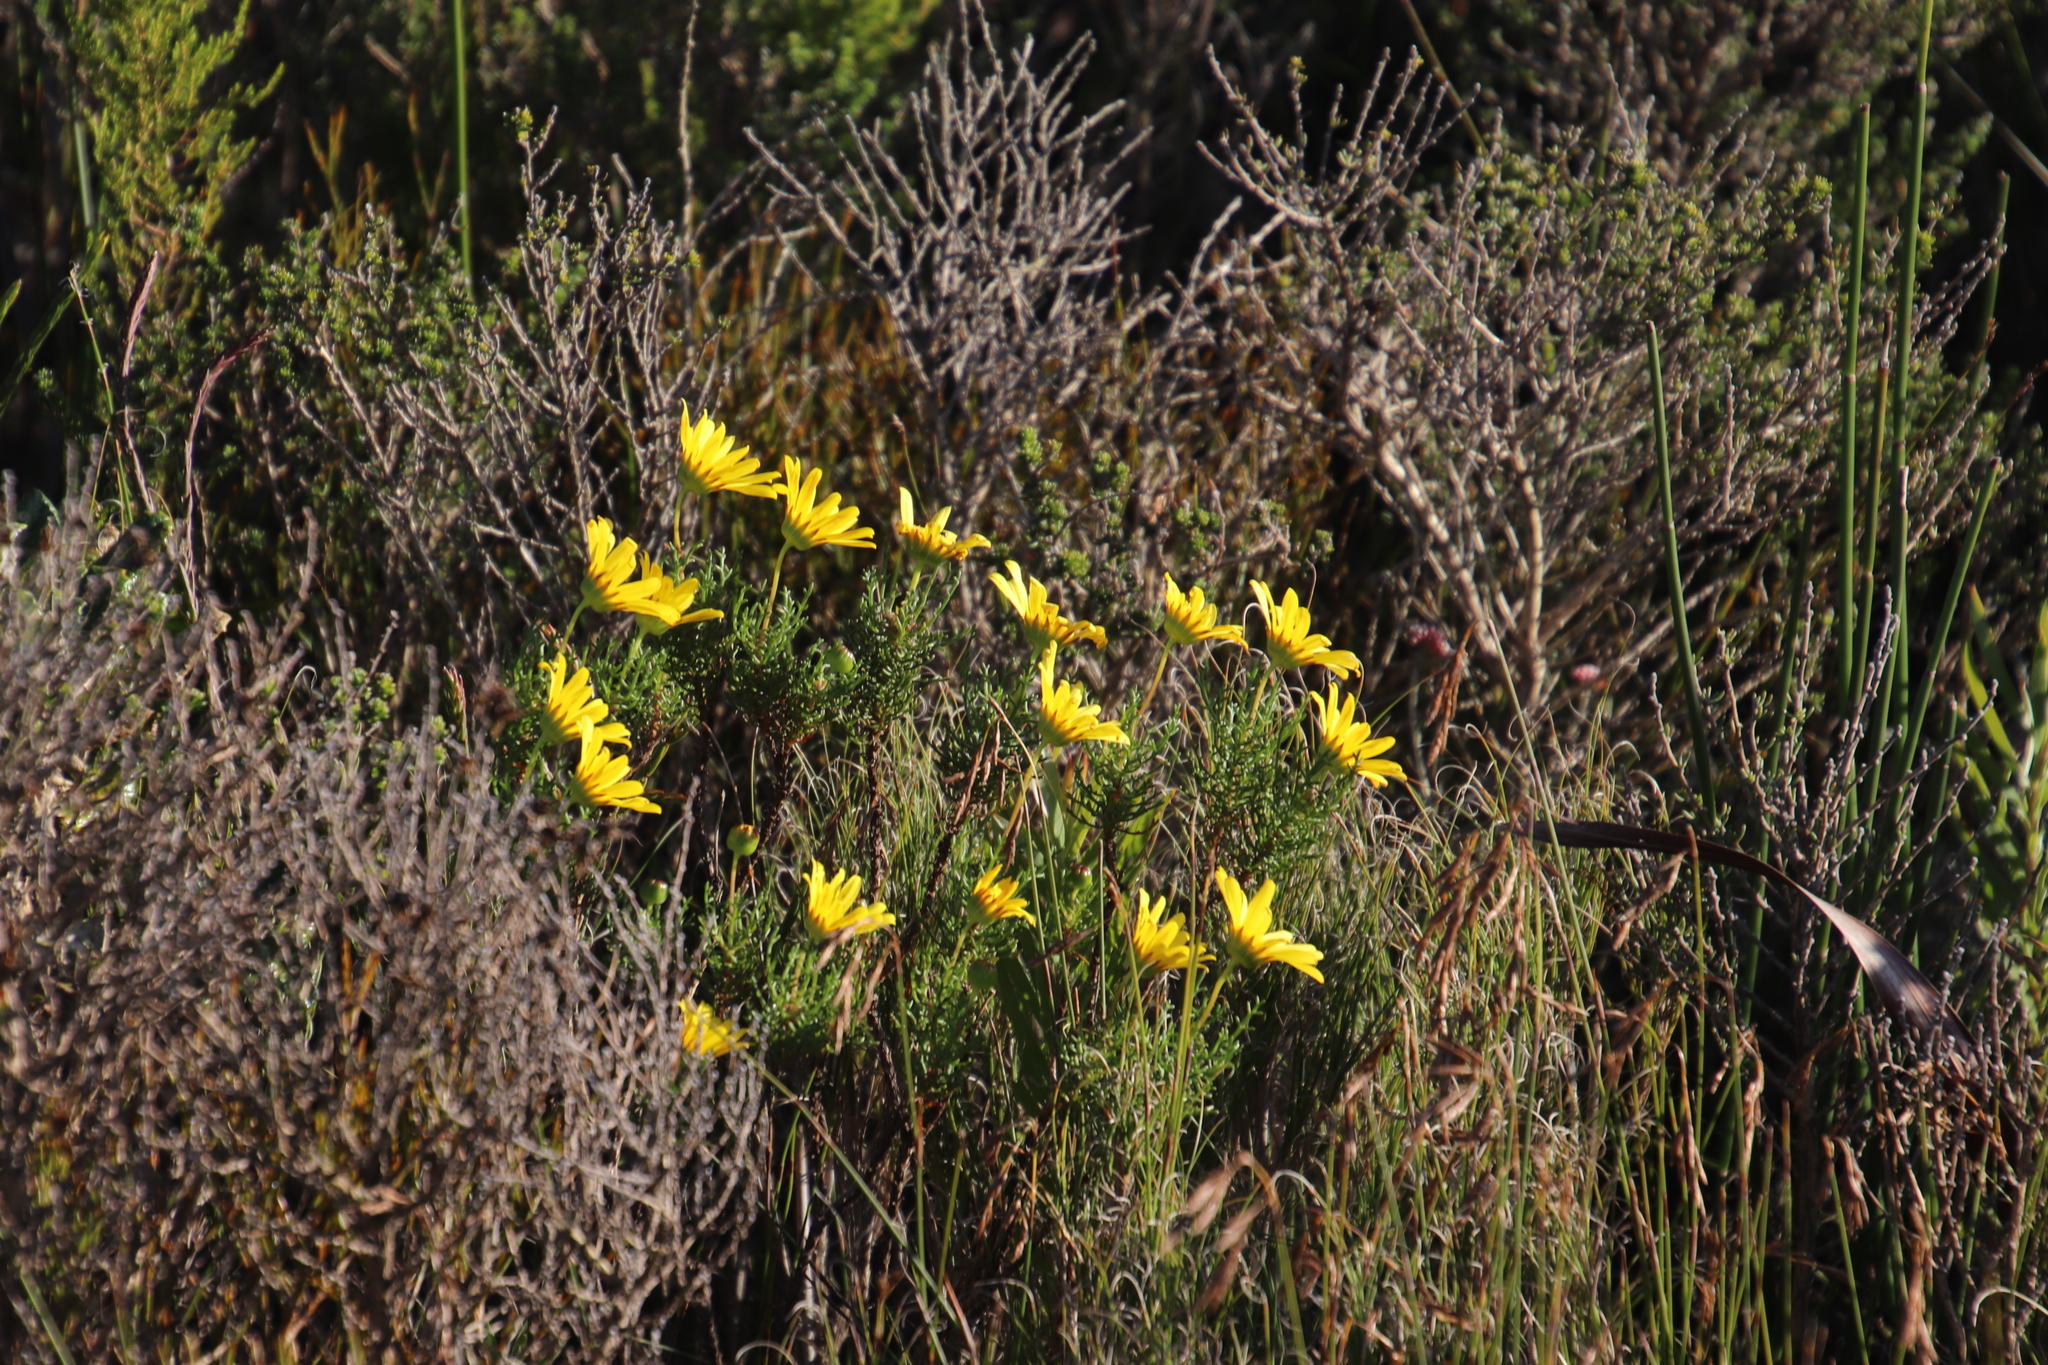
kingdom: Plantae
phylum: Tracheophyta
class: Magnoliopsida
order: Asterales
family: Asteraceae
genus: Euryops
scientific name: Euryops abrotanifolius
